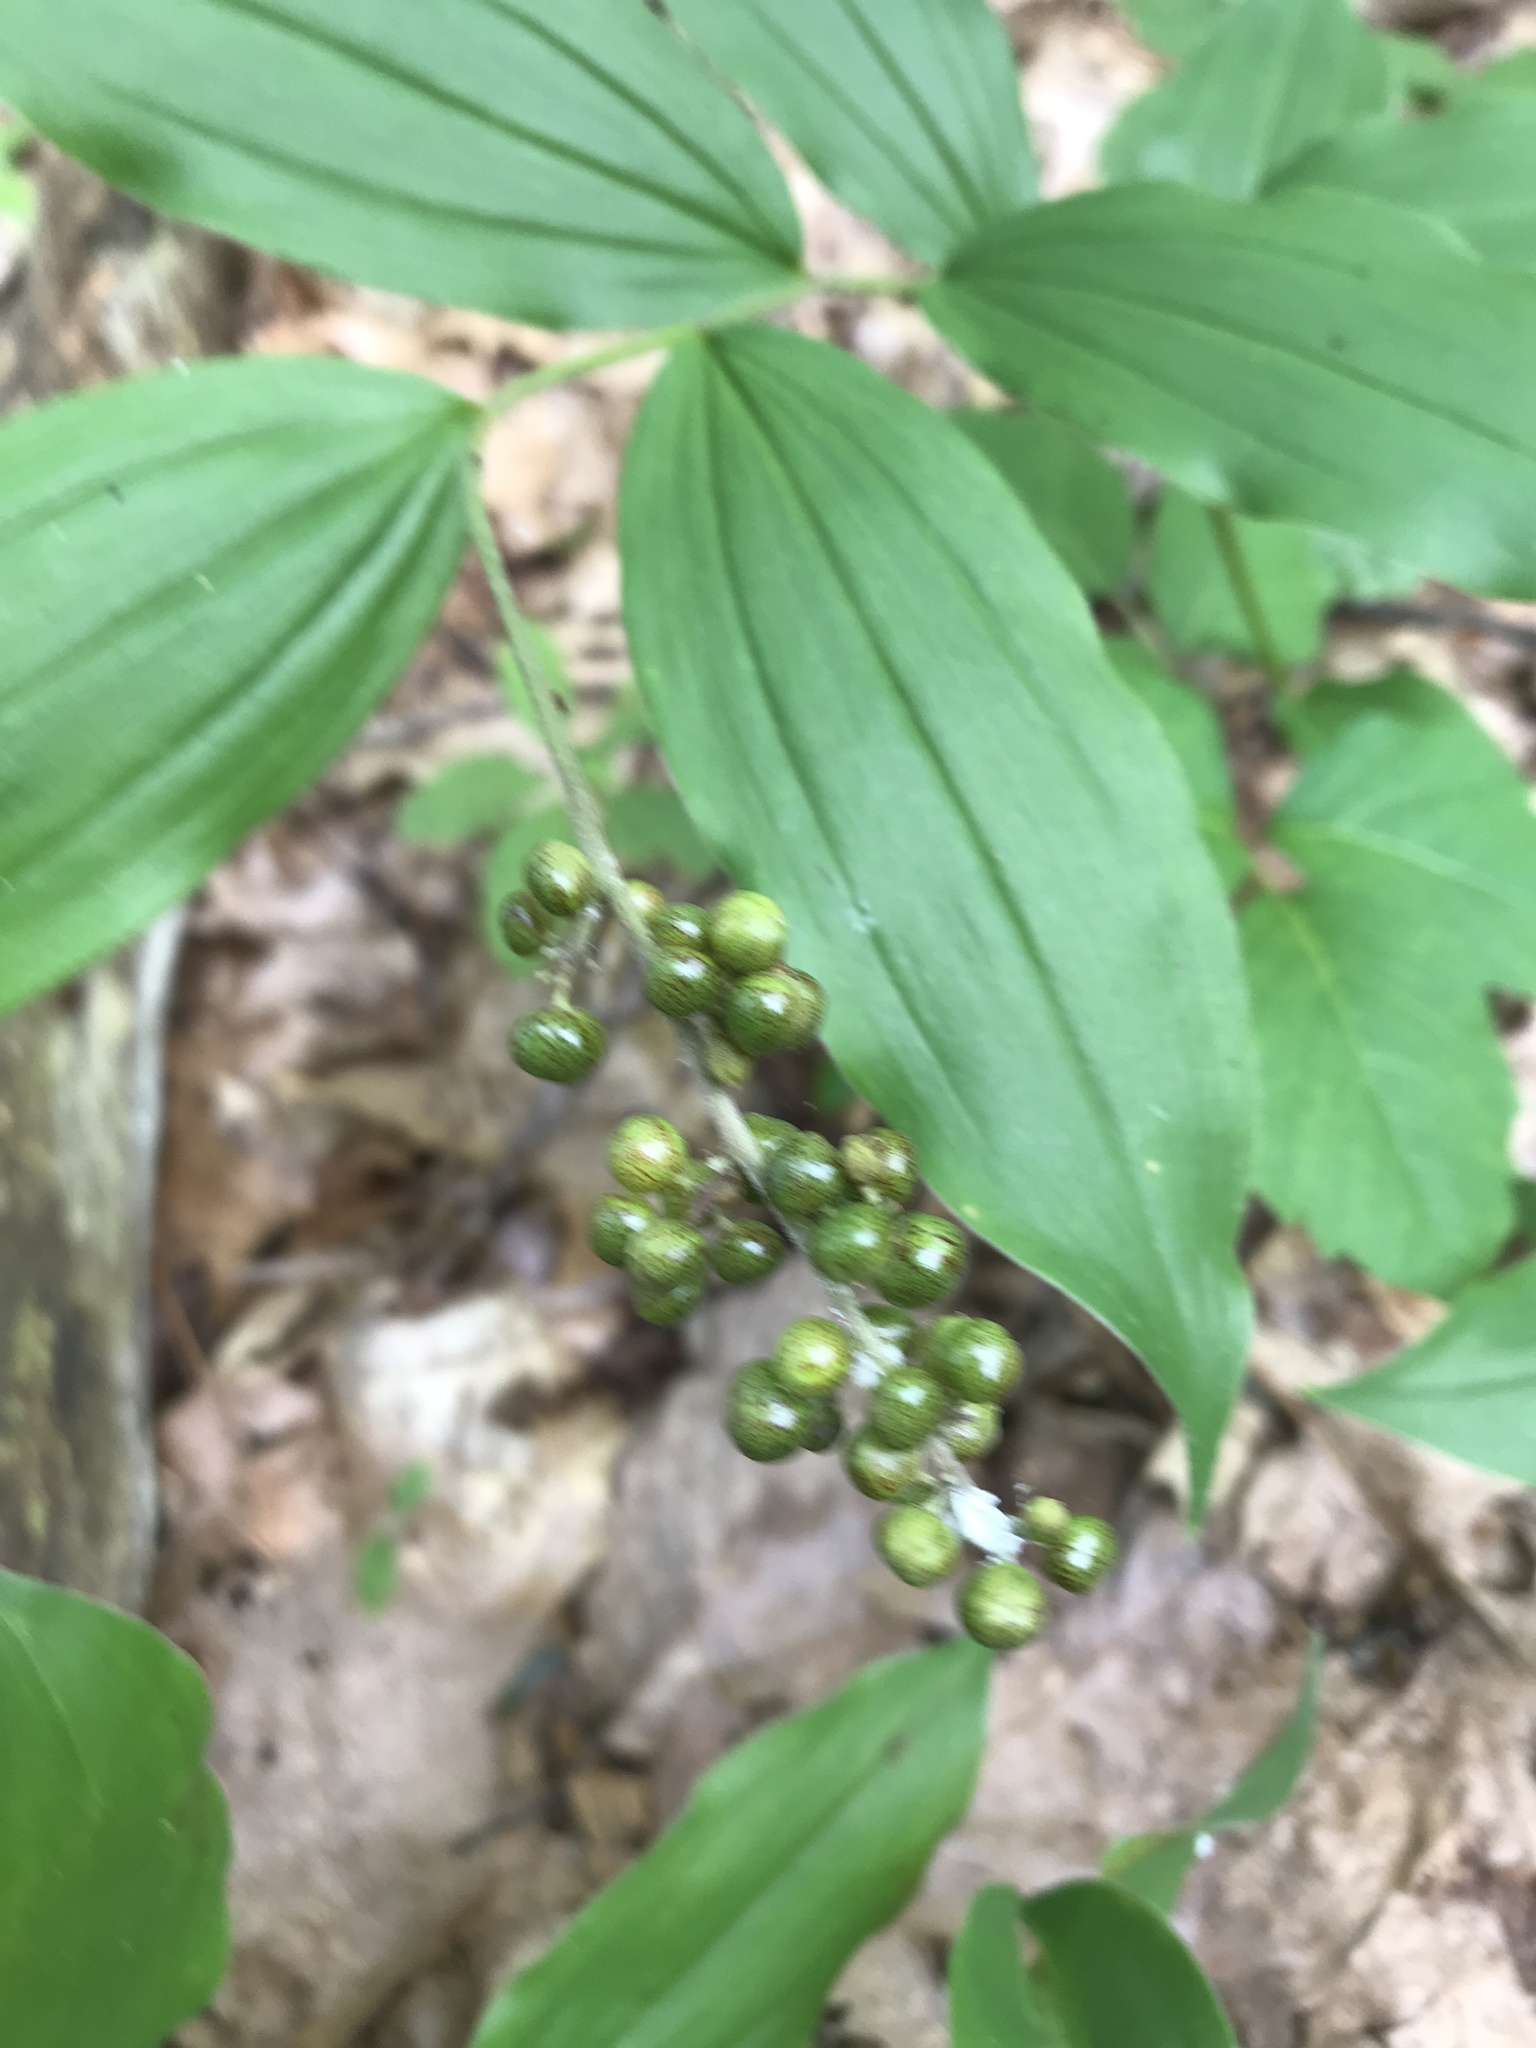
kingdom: Plantae
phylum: Tracheophyta
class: Liliopsida
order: Asparagales
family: Asparagaceae
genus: Maianthemum
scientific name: Maianthemum racemosum
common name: False spikenard
